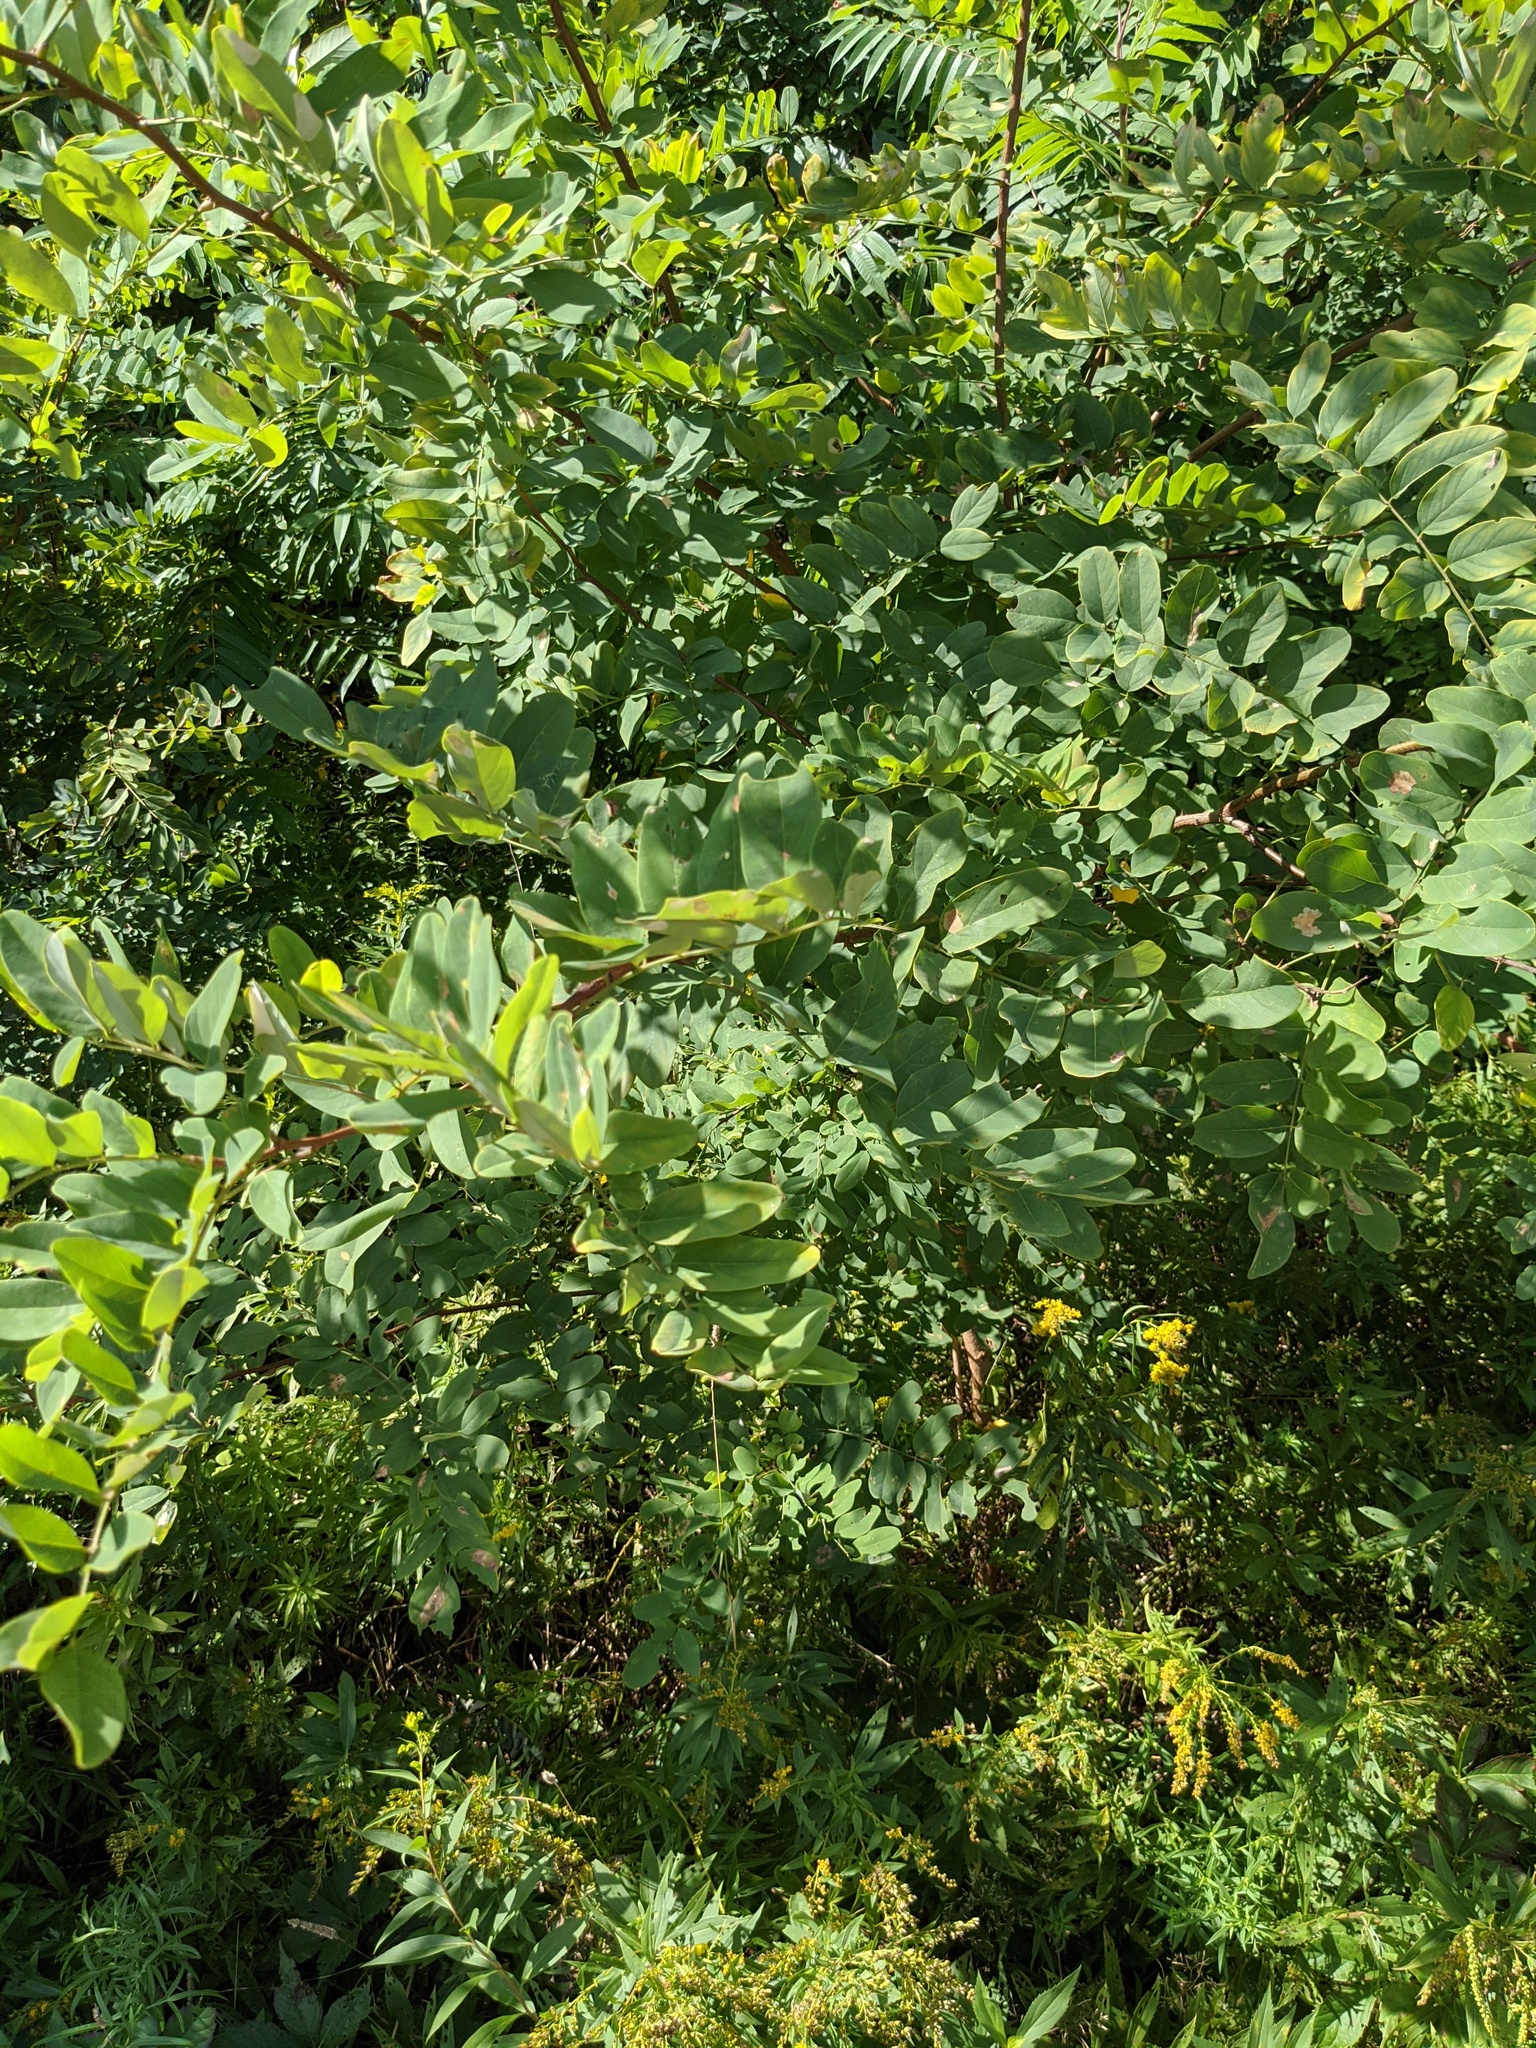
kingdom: Plantae
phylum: Tracheophyta
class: Magnoliopsida
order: Fabales
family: Fabaceae
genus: Robinia
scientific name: Robinia pseudoacacia
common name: Black locust
